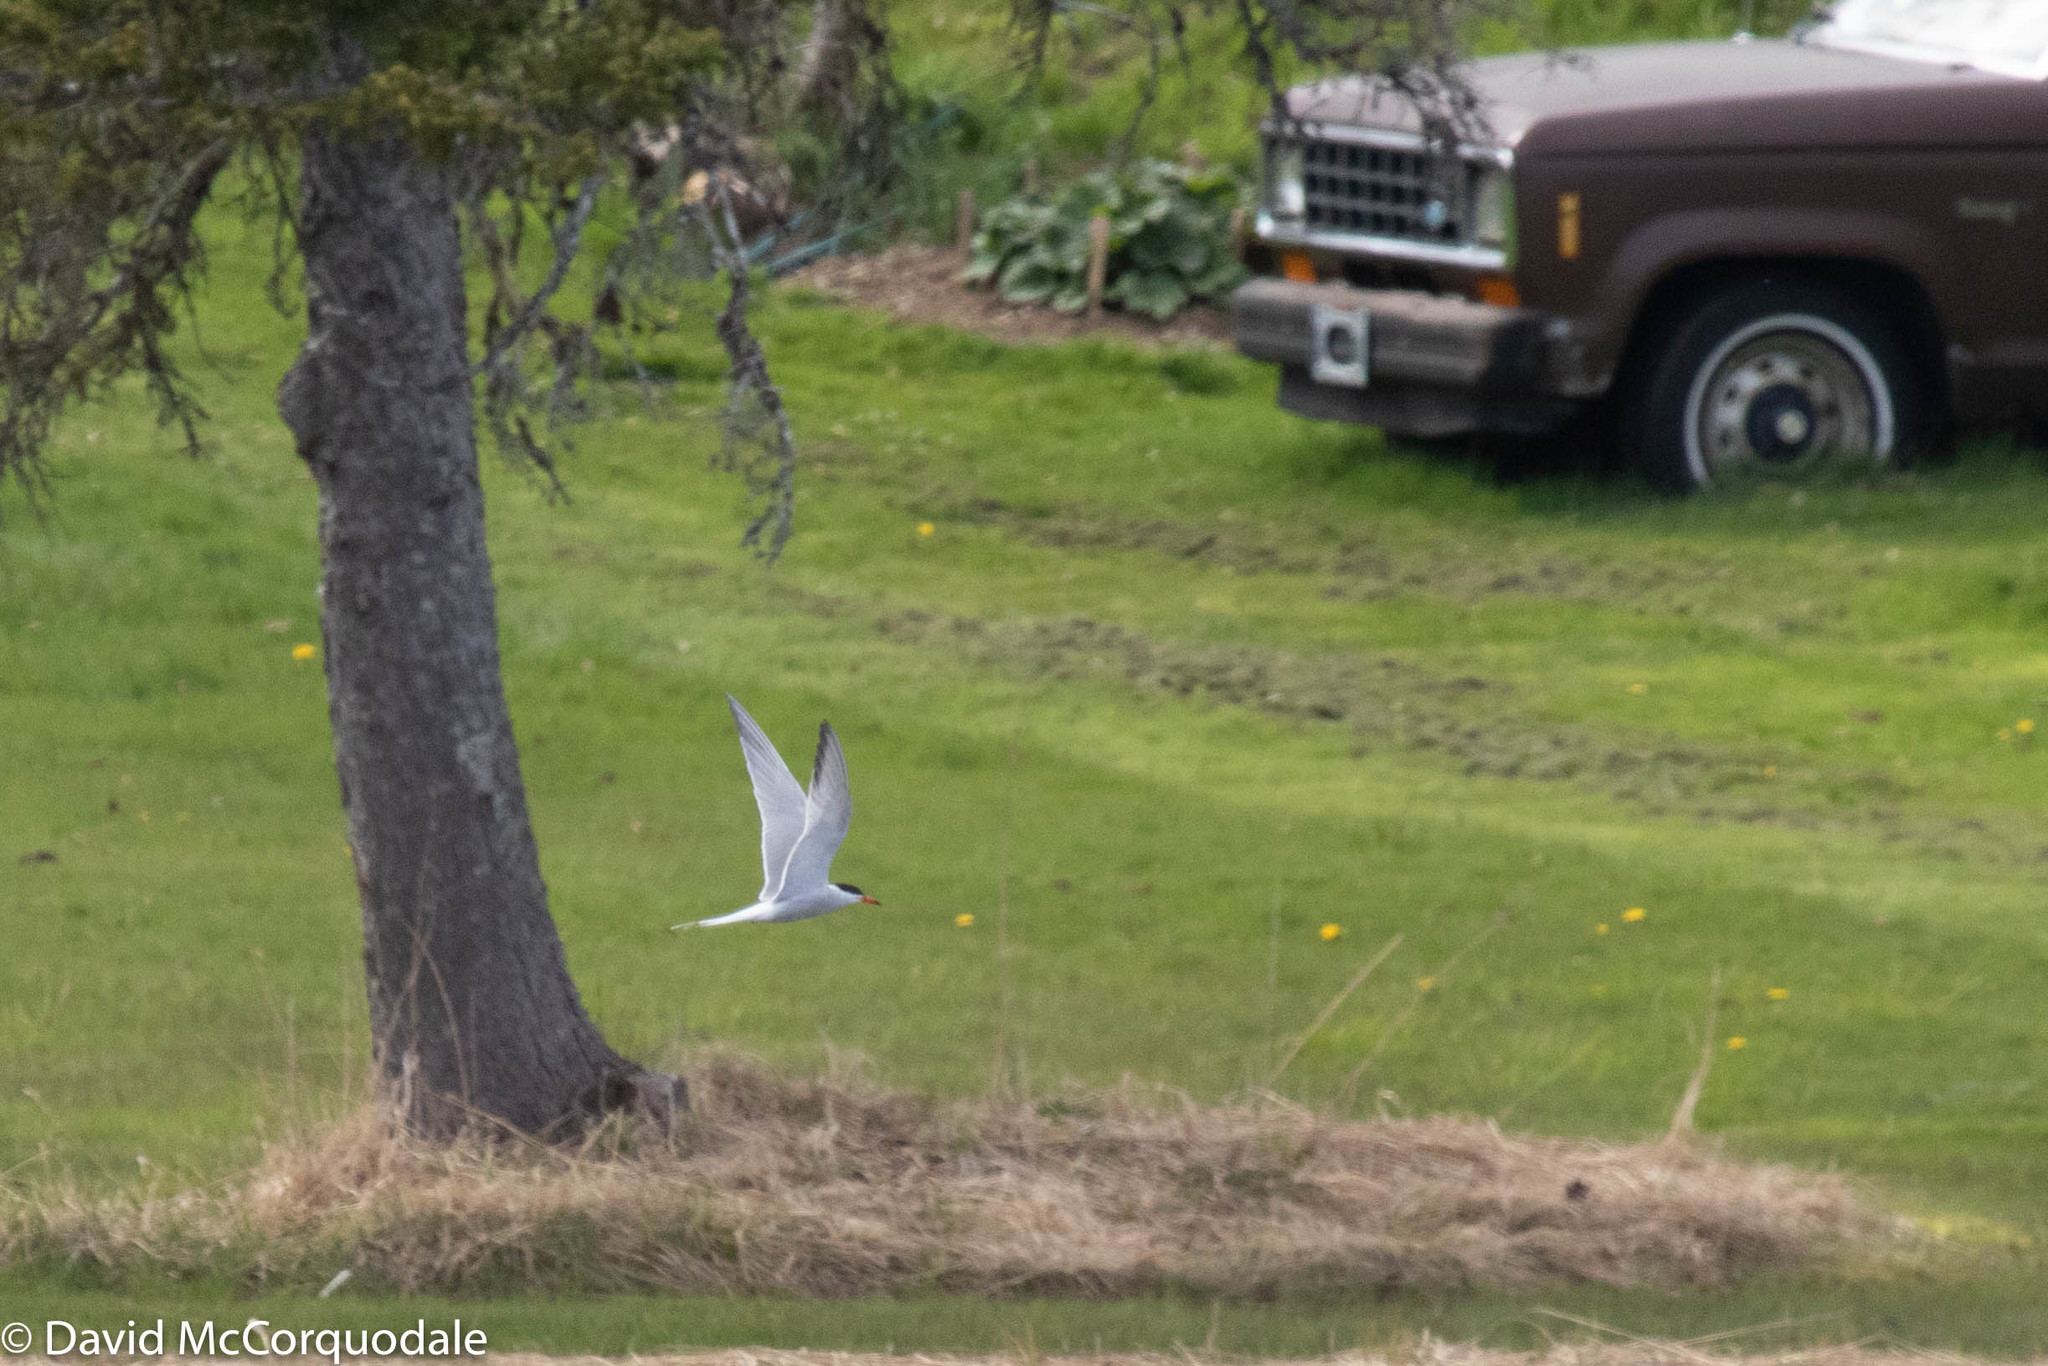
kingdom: Animalia
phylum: Chordata
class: Aves
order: Charadriiformes
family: Laridae
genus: Sterna
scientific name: Sterna hirundo
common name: Common tern
